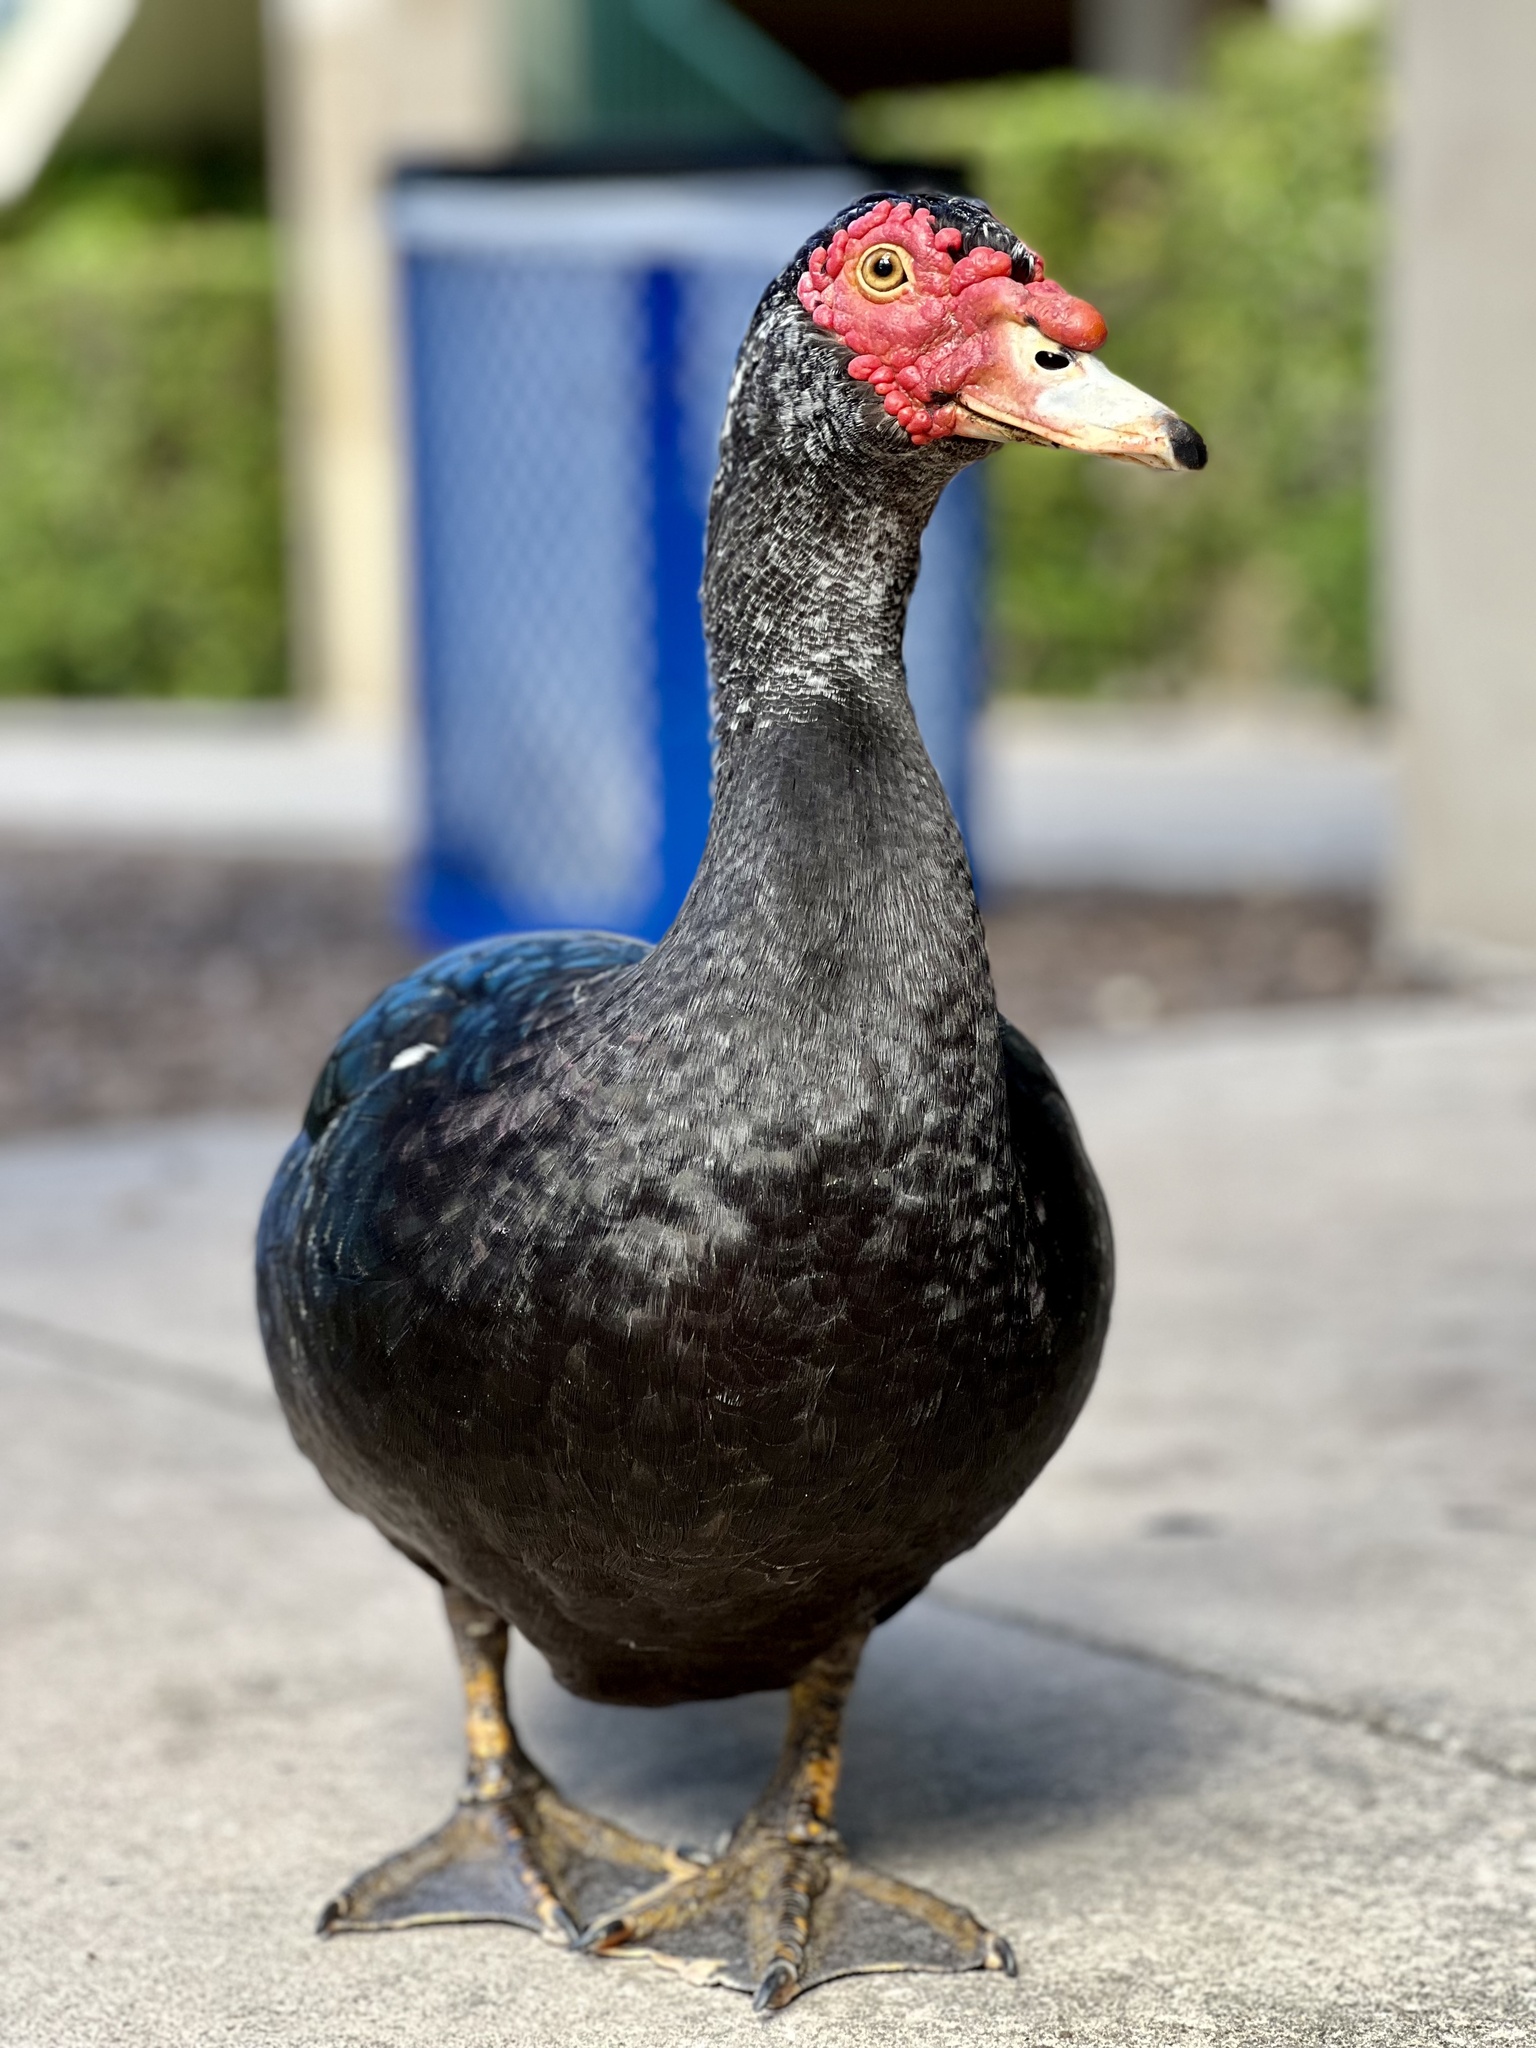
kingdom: Animalia
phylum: Chordata
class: Aves
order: Anseriformes
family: Anatidae
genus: Cairina
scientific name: Cairina moschata
